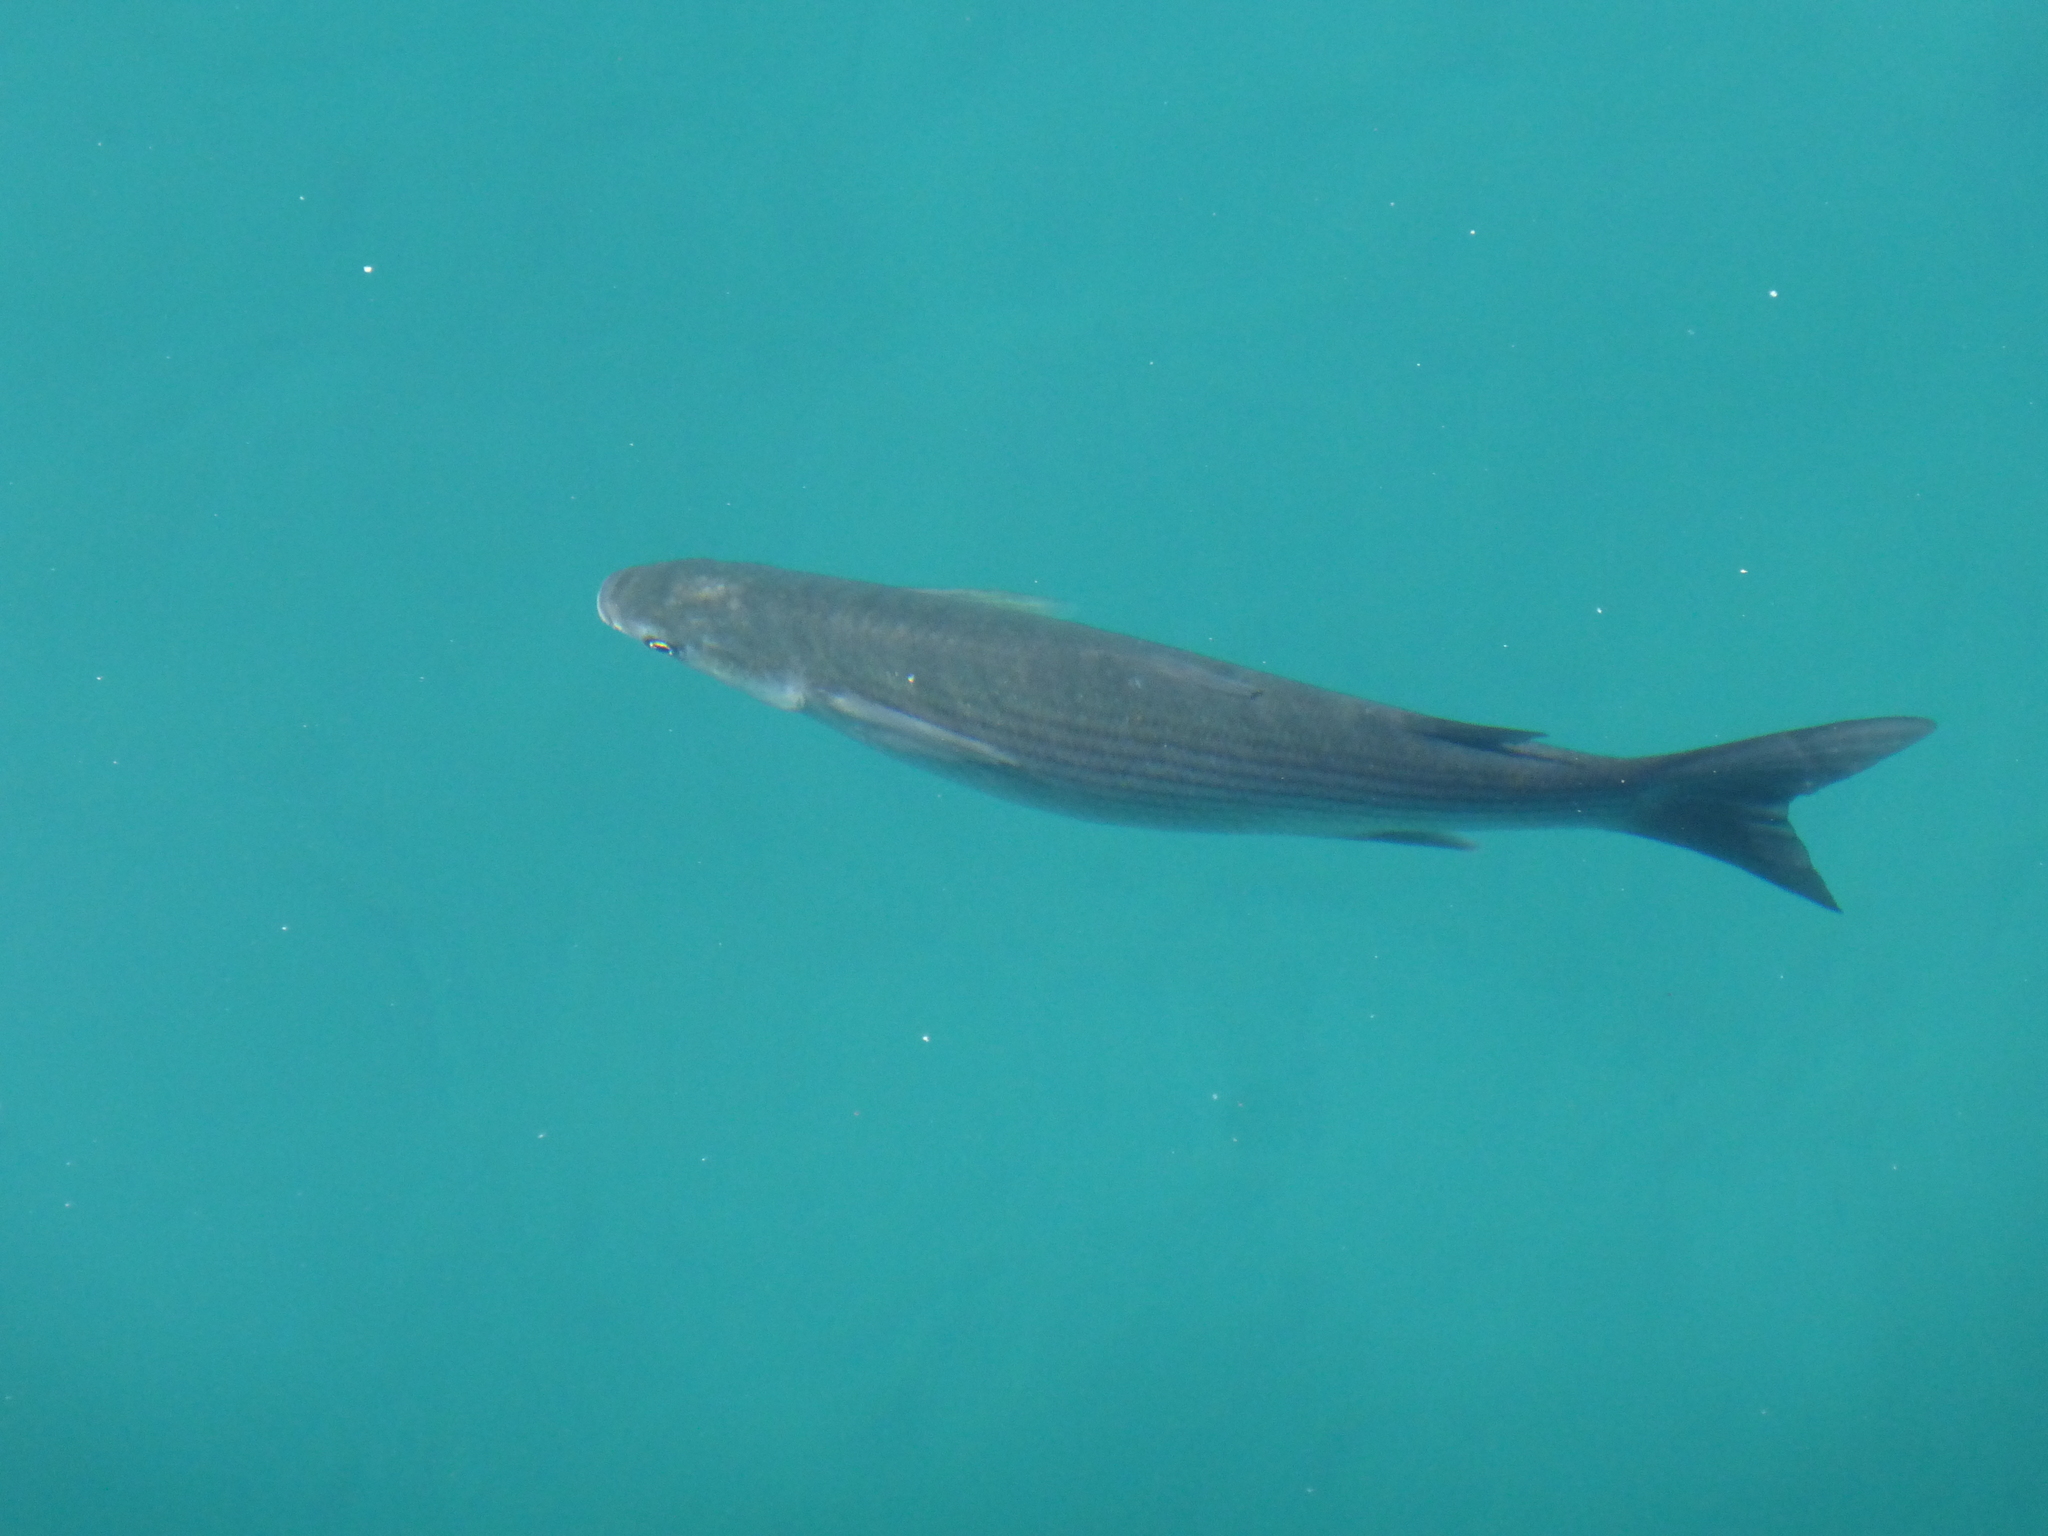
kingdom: Animalia
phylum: Chordata
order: Mugiliformes
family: Mugilidae
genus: Chelon
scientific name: Chelon labrosus
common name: Thick-lipped mullet
